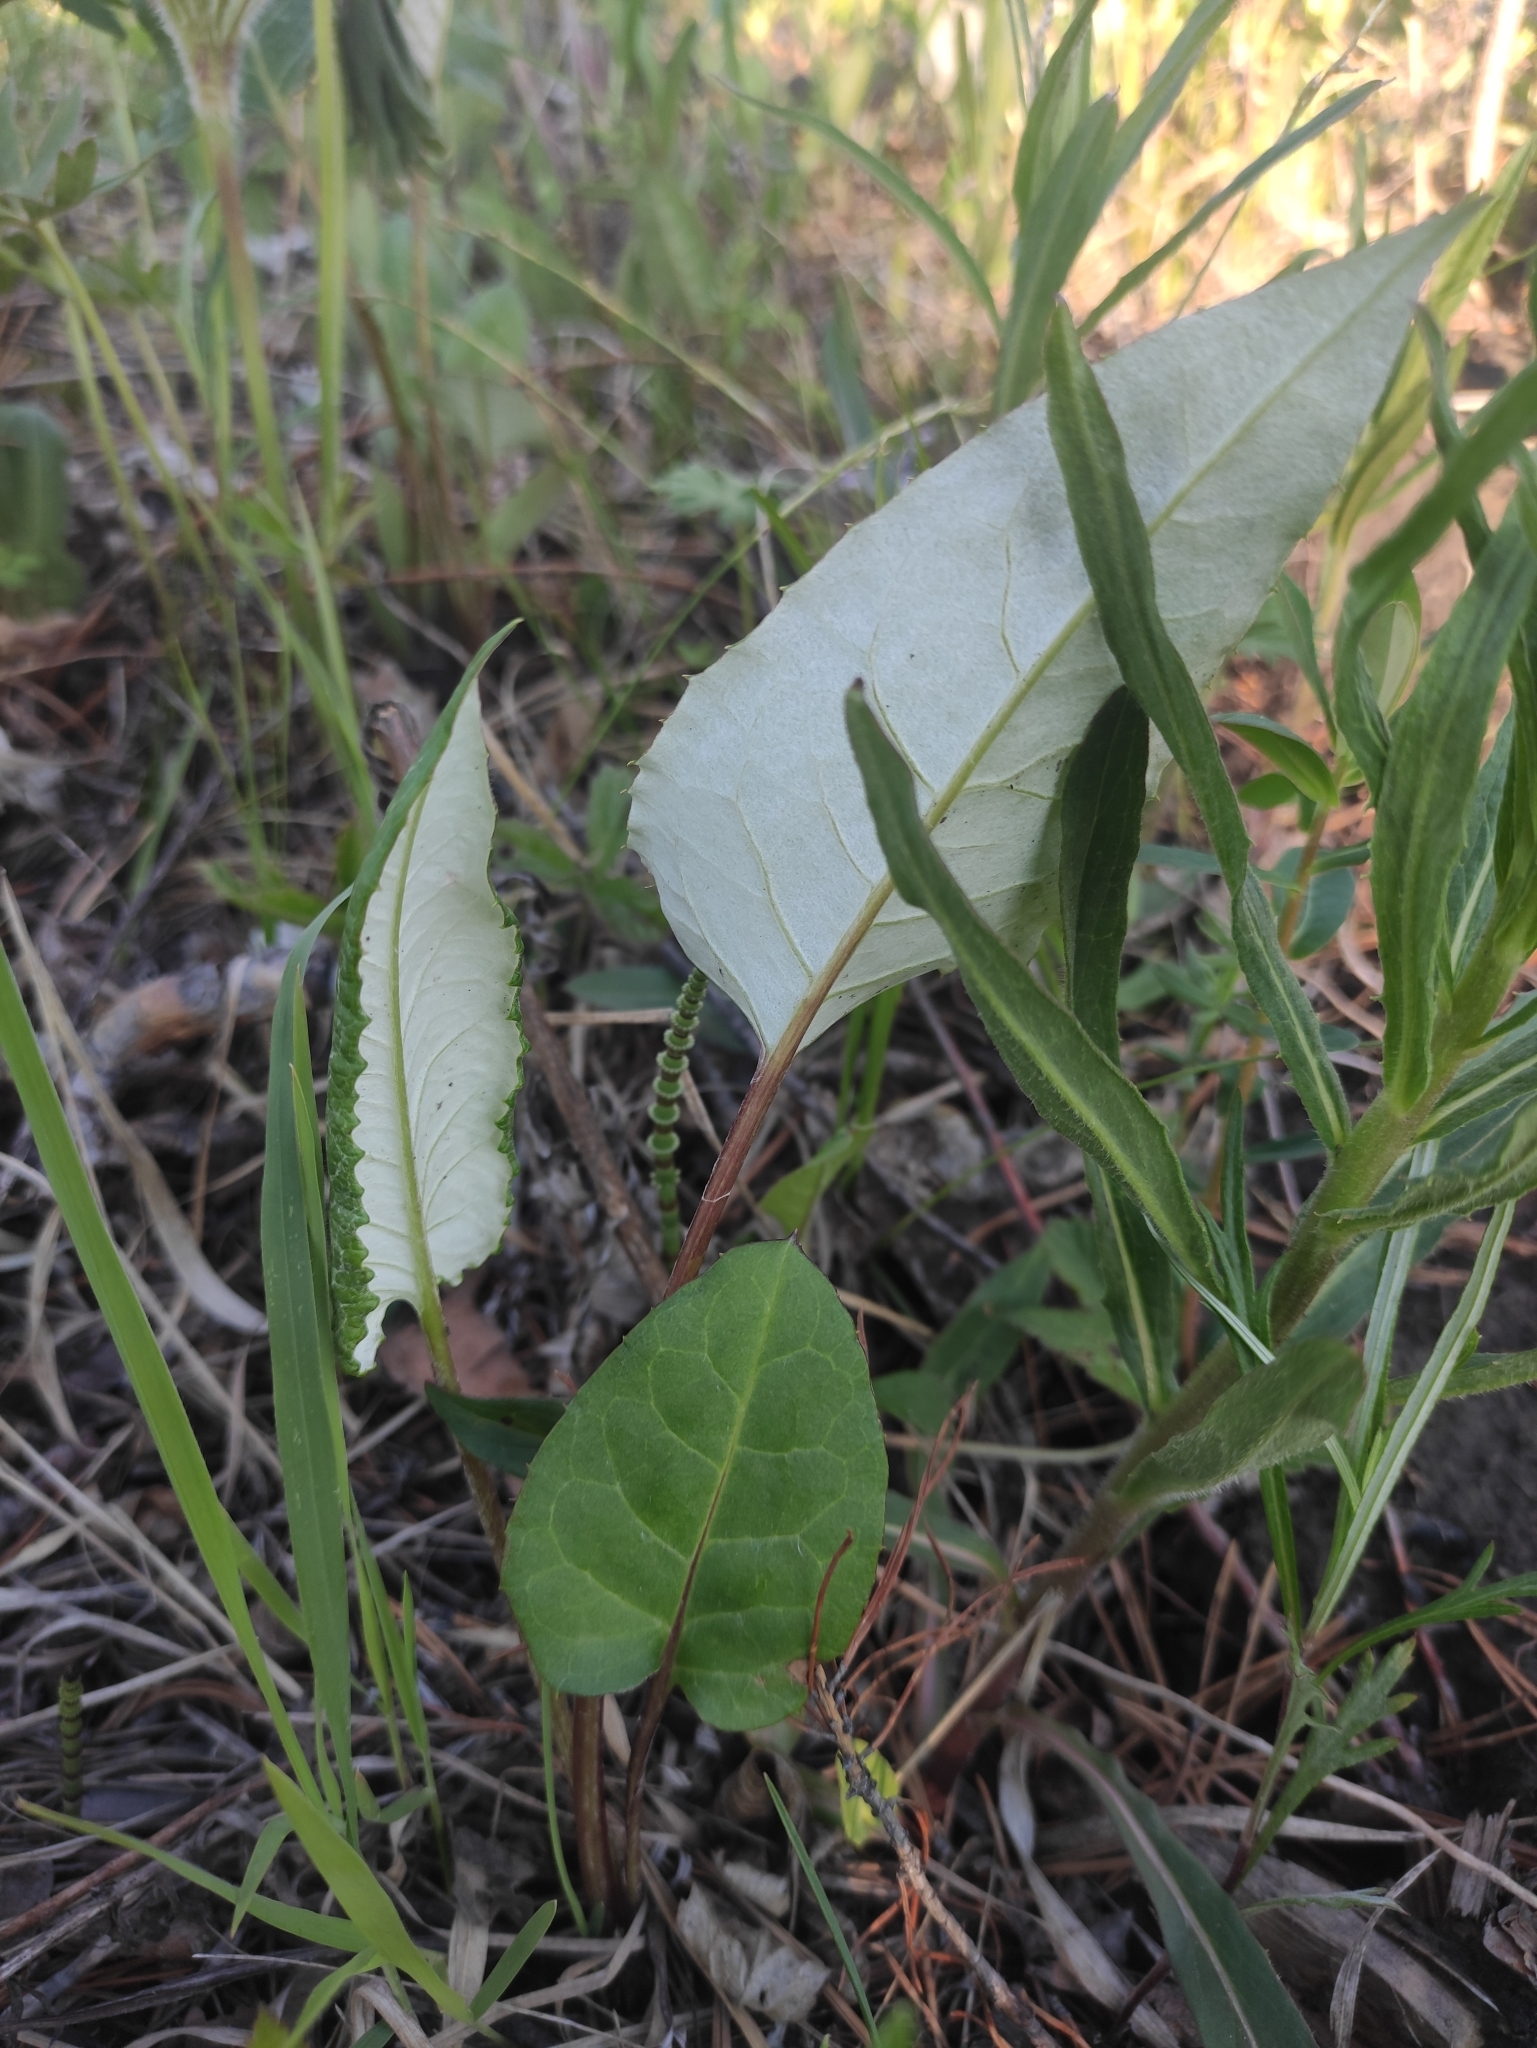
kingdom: Plantae
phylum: Tracheophyta
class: Magnoliopsida
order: Asterales
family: Asteraceae
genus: Saussurea
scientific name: Saussurea controversa
